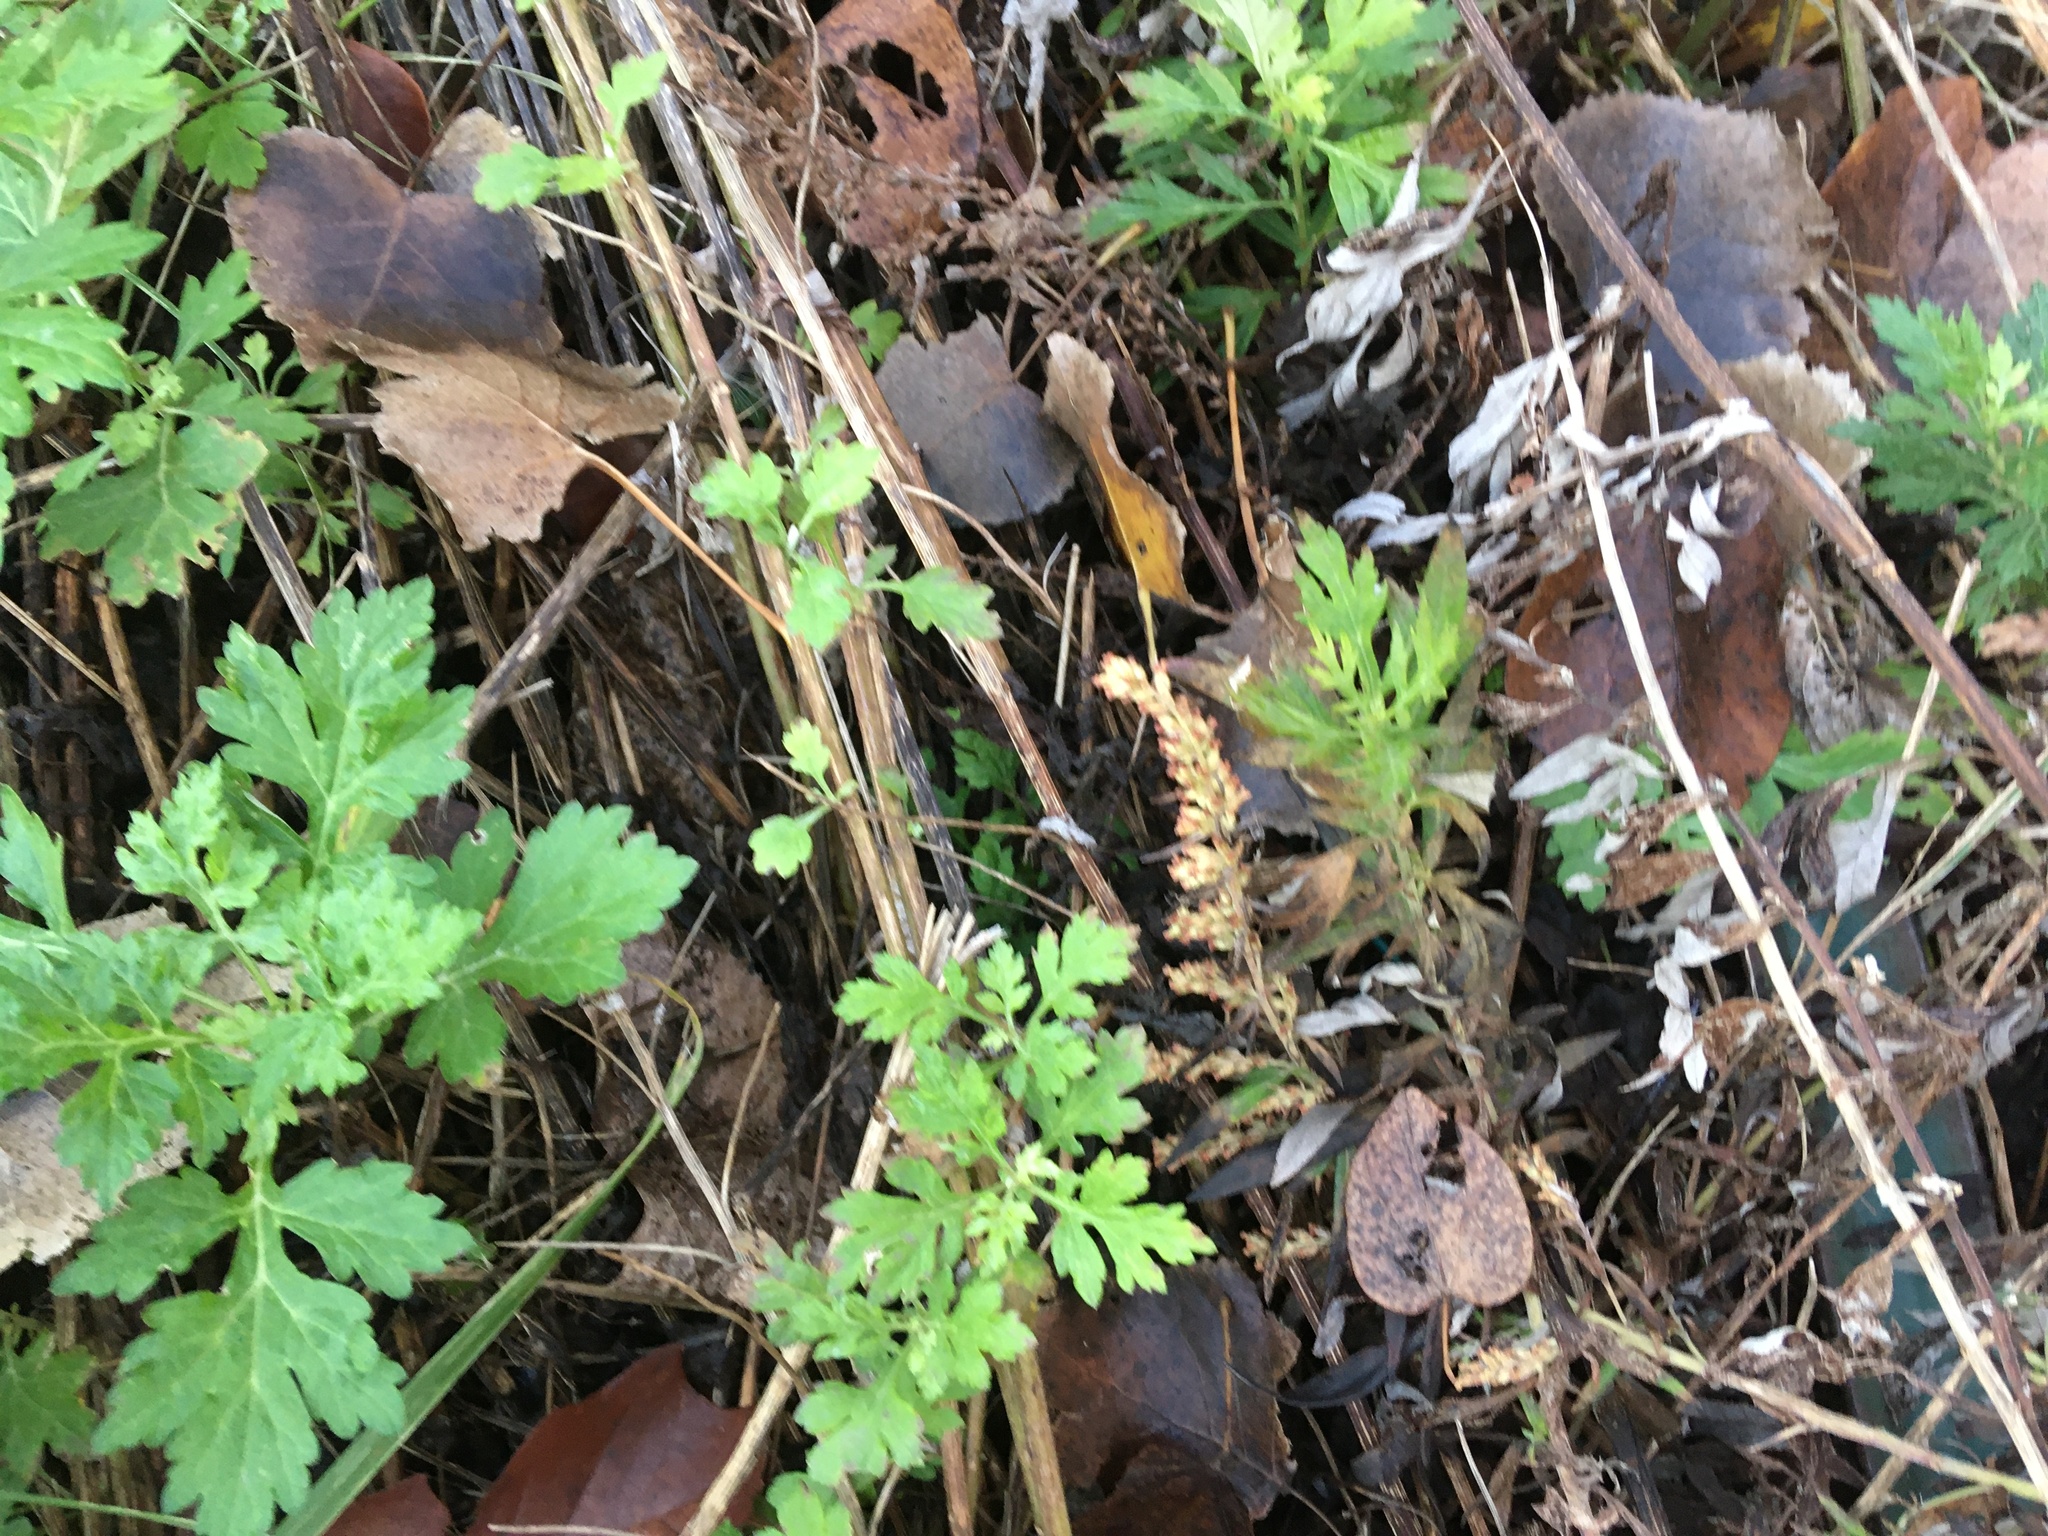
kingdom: Plantae
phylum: Tracheophyta
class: Magnoliopsida
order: Asterales
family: Asteraceae
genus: Artemisia
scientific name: Artemisia vulgaris
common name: Mugwort
